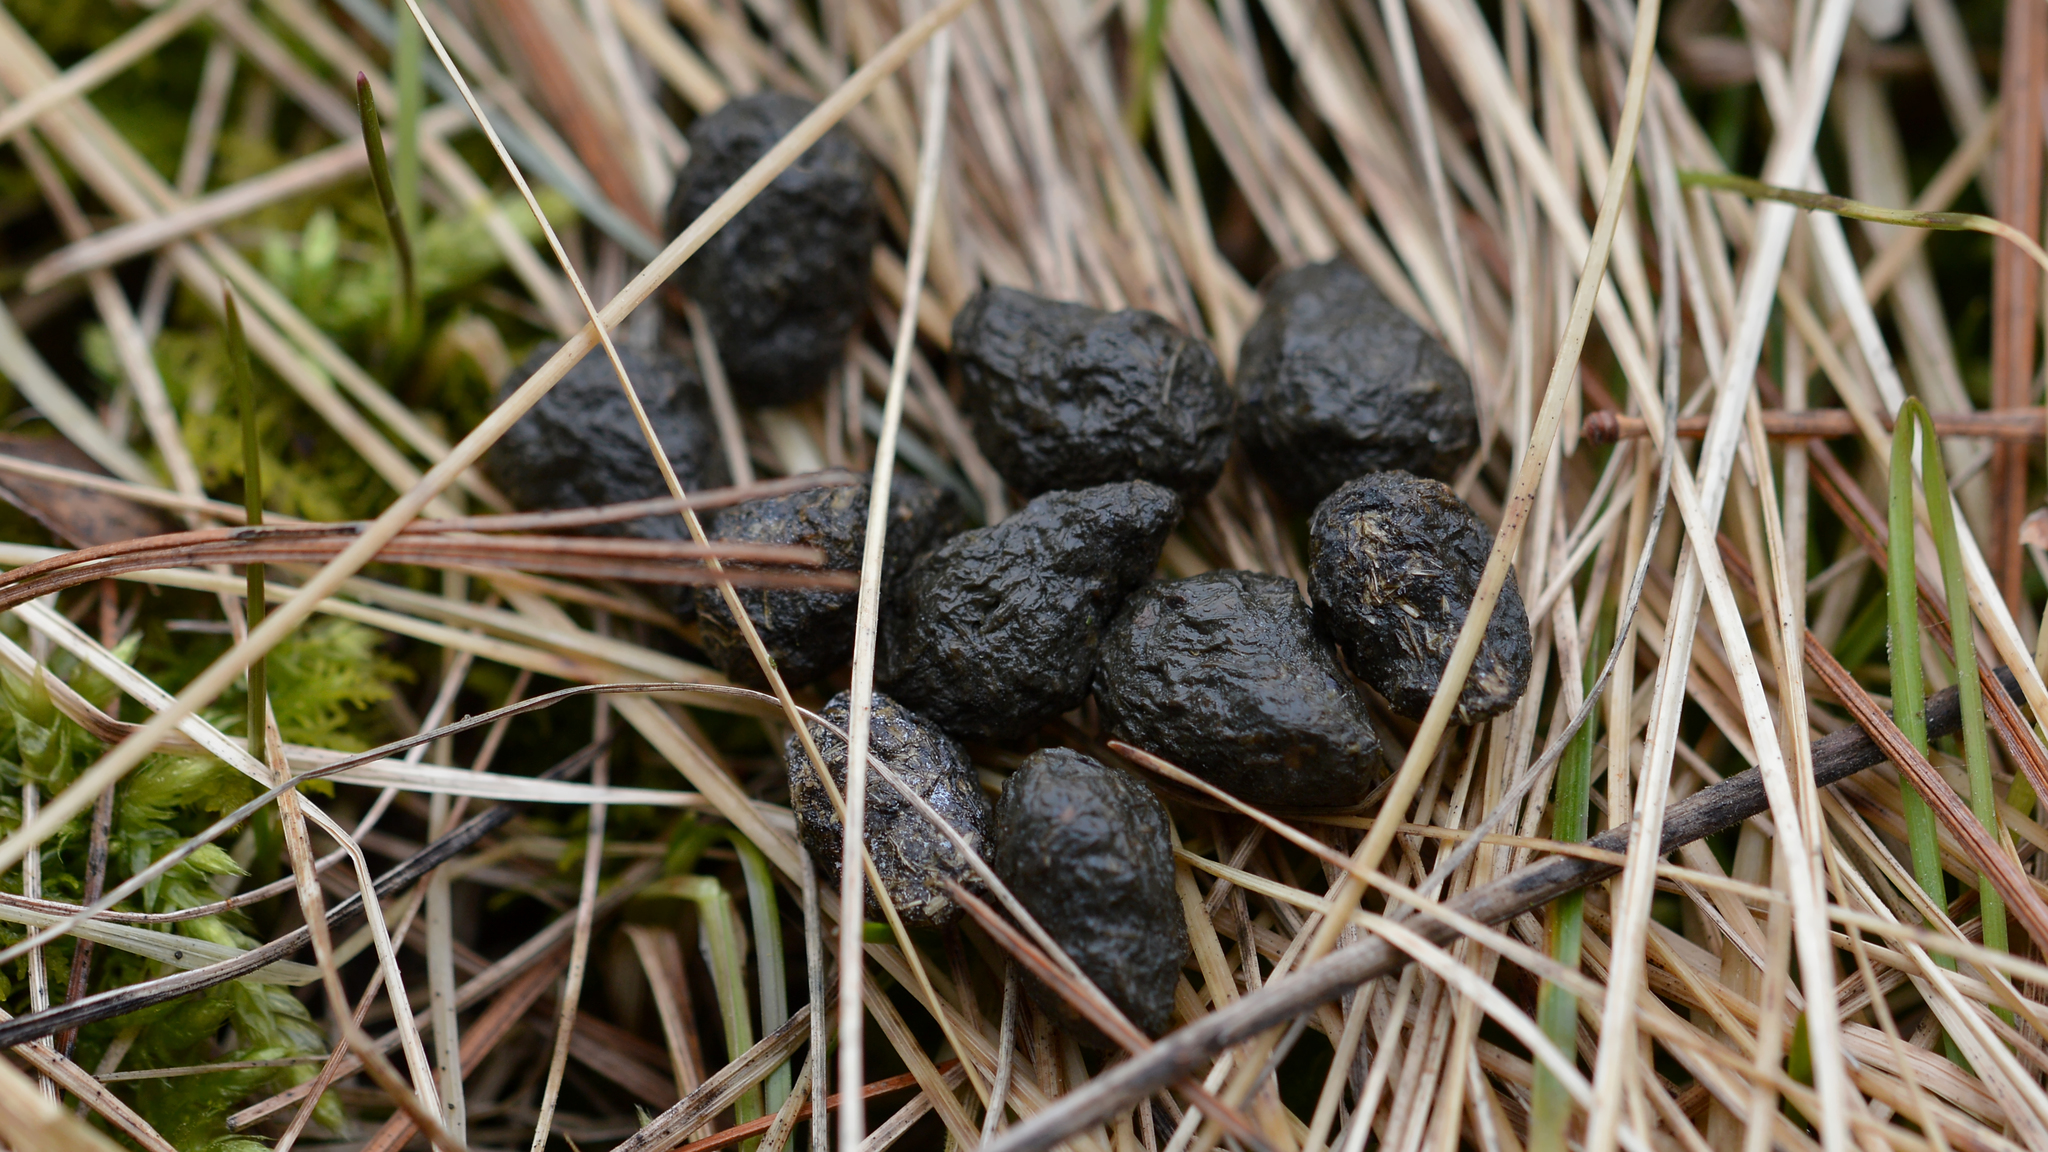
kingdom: Animalia
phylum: Chordata
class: Mammalia
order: Artiodactyla
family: Cervidae
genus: Odocoileus
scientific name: Odocoileus virginianus
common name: White-tailed deer
